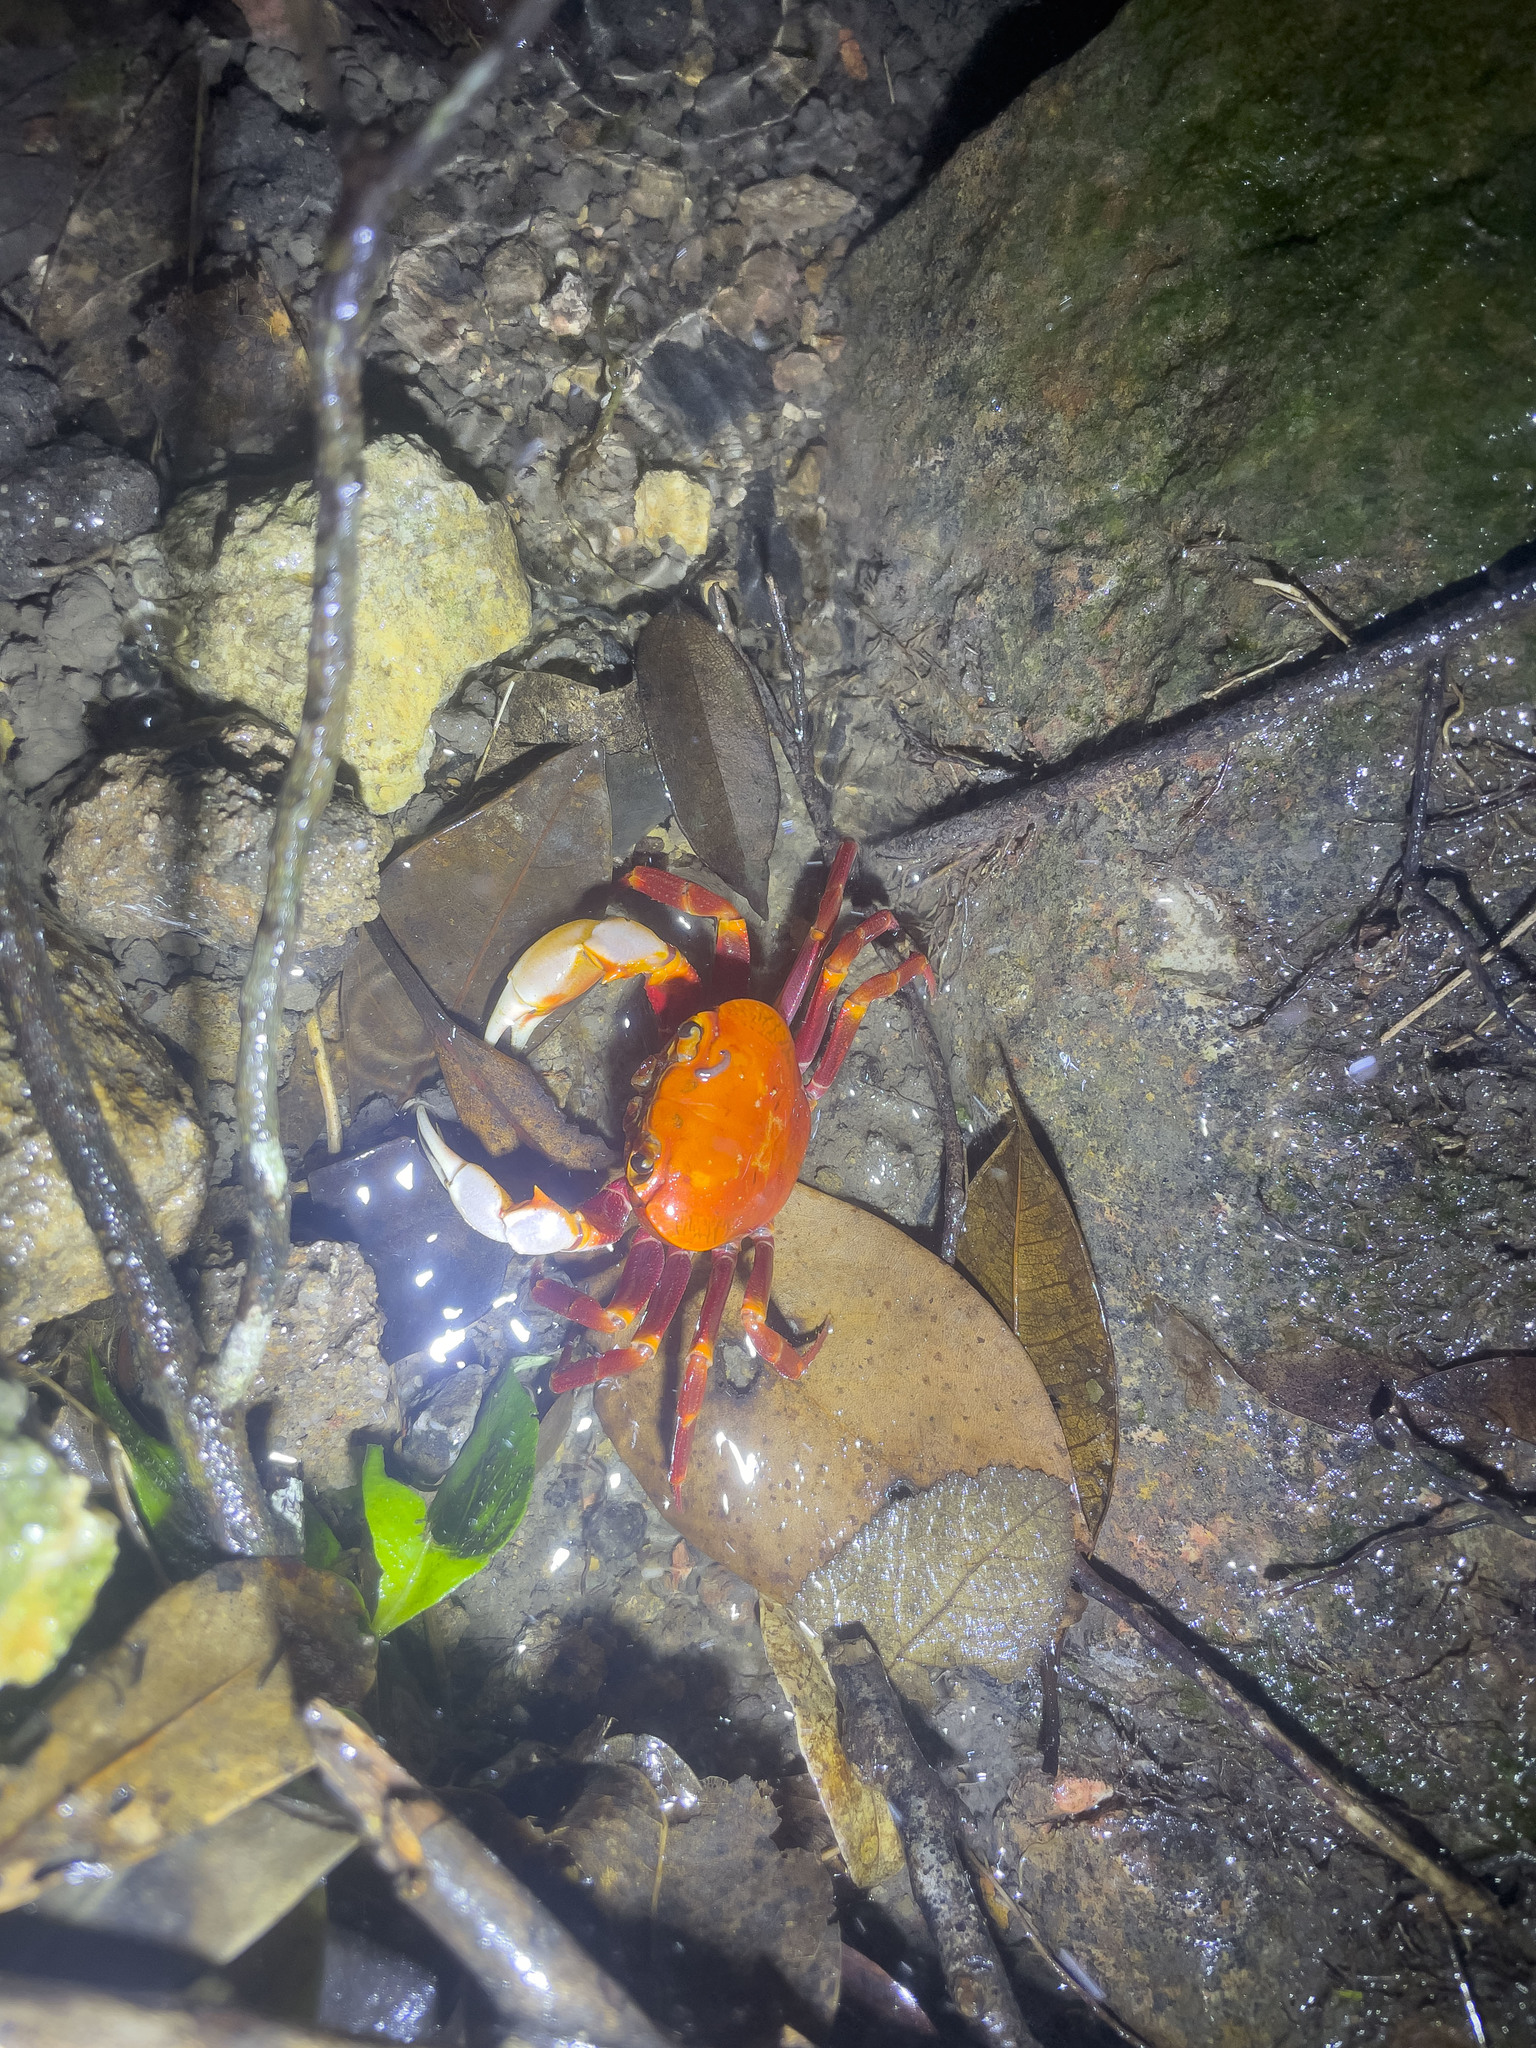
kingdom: Animalia
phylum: Arthropoda
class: Malacostraca
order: Decapoda
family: Potamidae
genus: Nanhaipotamon
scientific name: Nanhaipotamon hongkongense
